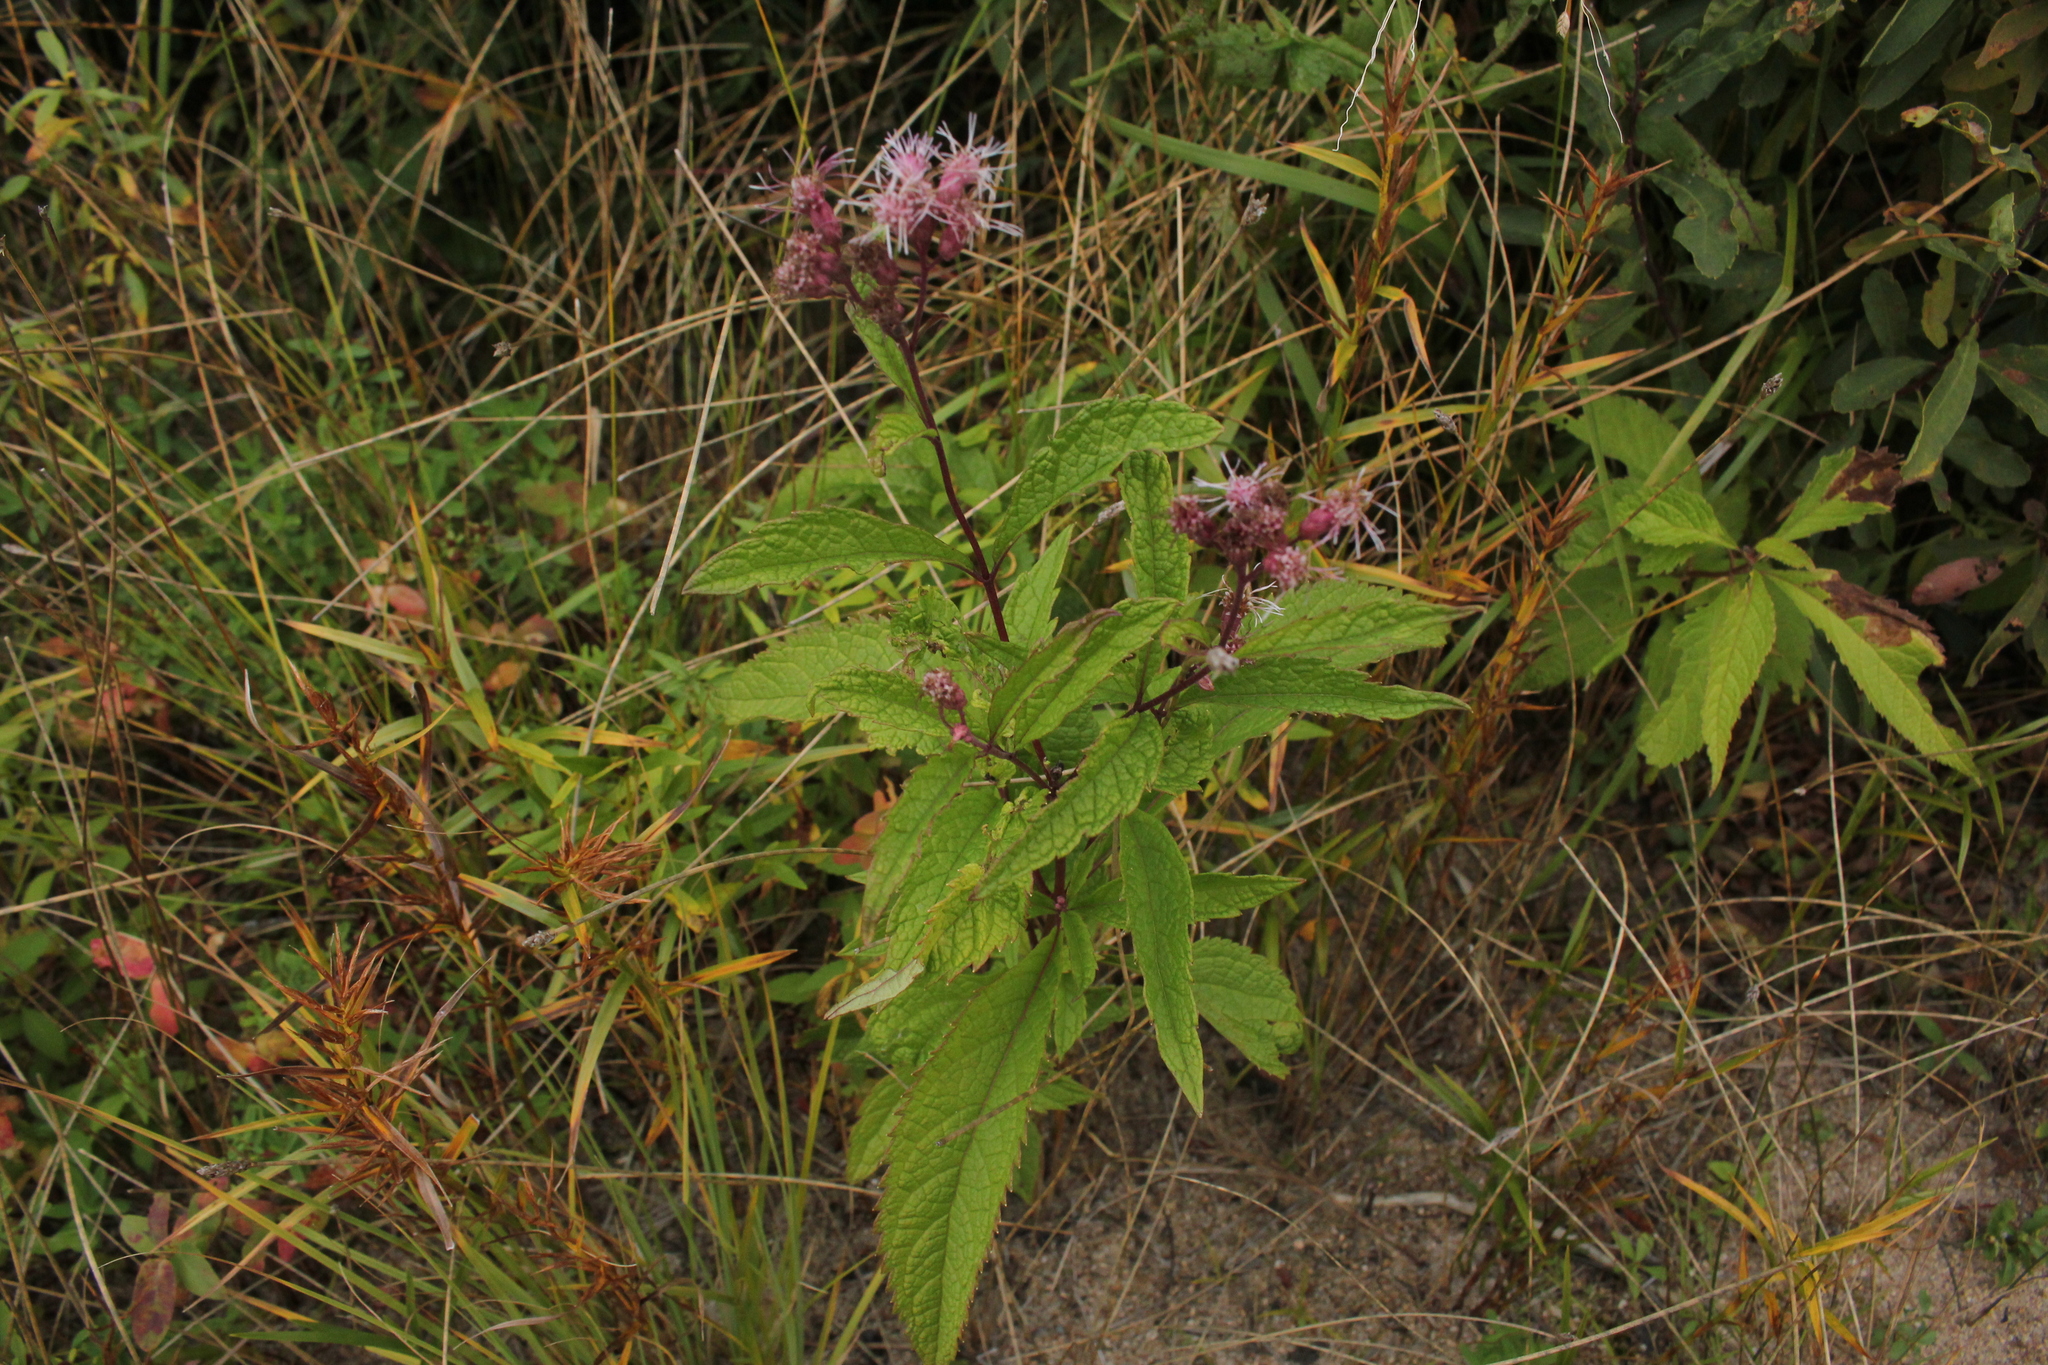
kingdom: Plantae
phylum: Tracheophyta
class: Magnoliopsida
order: Asterales
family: Asteraceae
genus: Eutrochium
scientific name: Eutrochium maculatum
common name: Spotted joe pye weed
